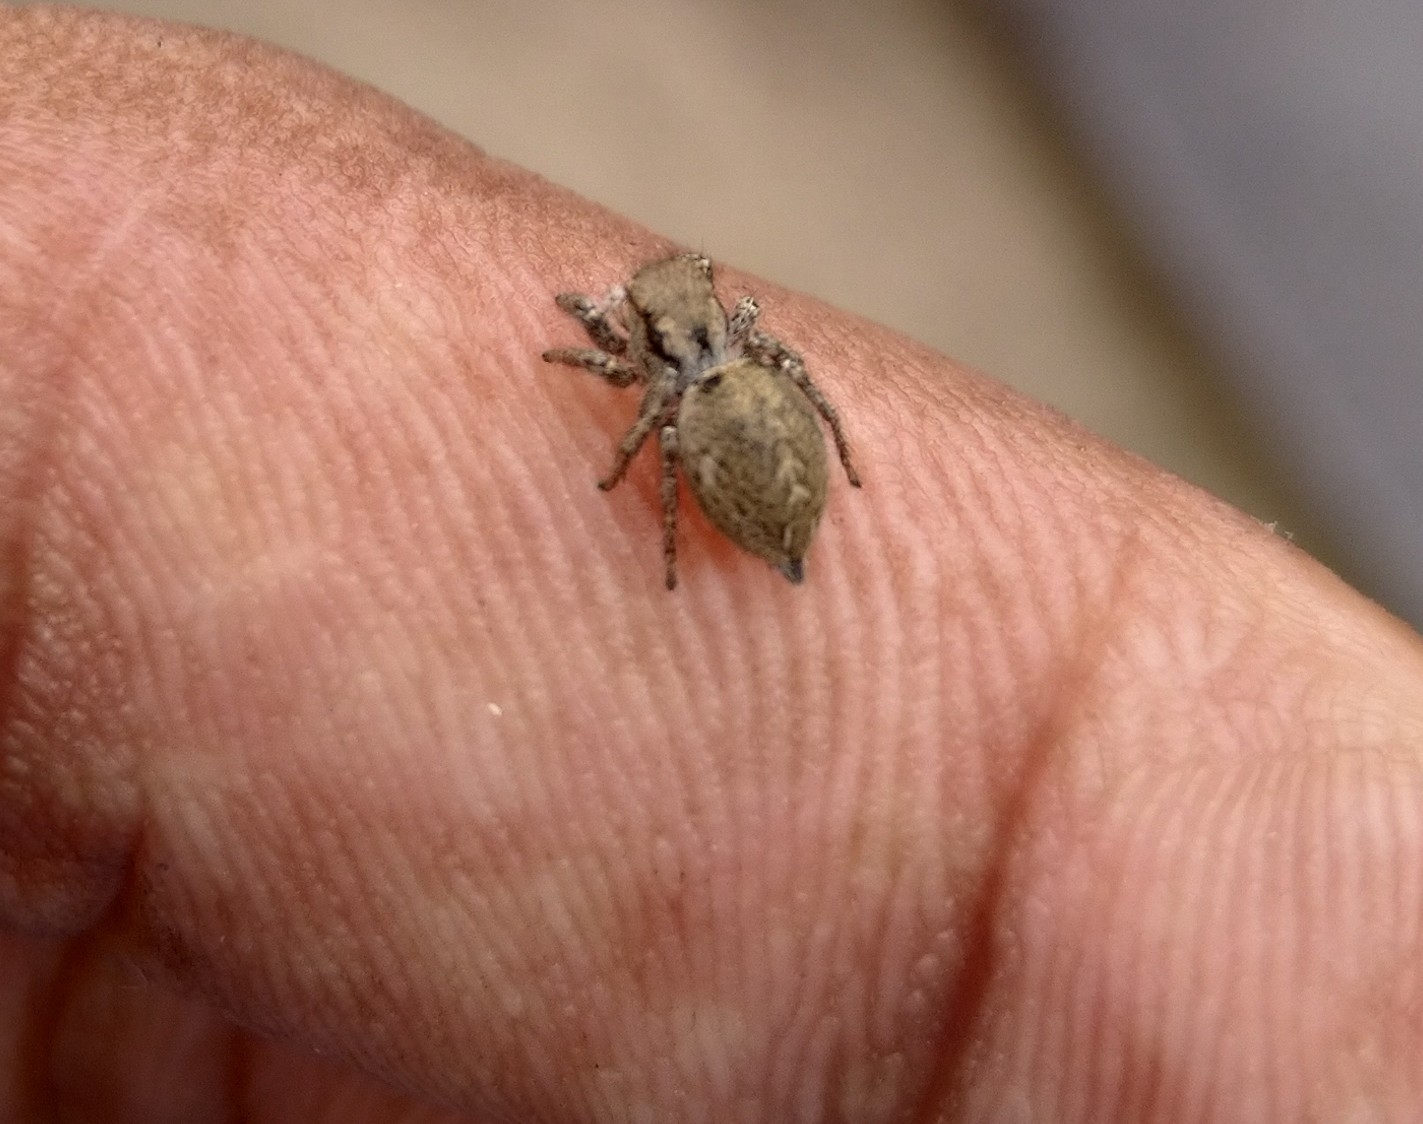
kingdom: Animalia
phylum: Arthropoda
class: Arachnida
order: Araneae
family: Salticidae
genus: Habronattus
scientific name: Habronattus mexicanus
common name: Jumping spiders
